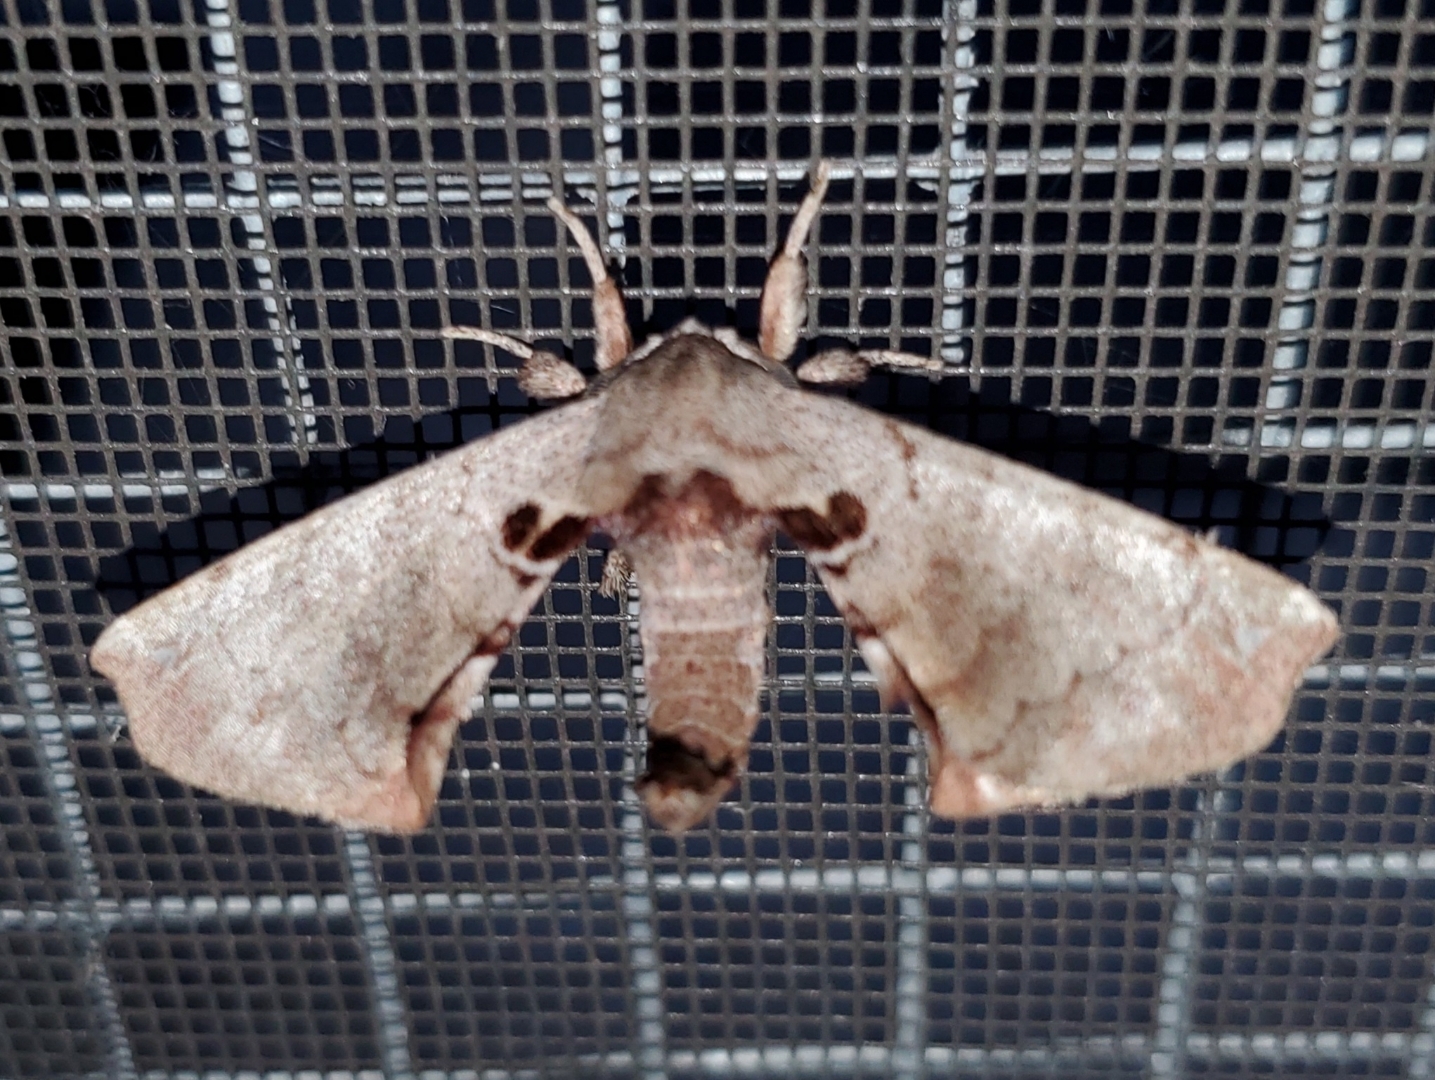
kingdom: Animalia
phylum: Arthropoda
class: Insecta
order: Lepidoptera
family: Apatelodidae
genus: Hygrochroa
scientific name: Hygrochroa Apatelodes torrefacta
